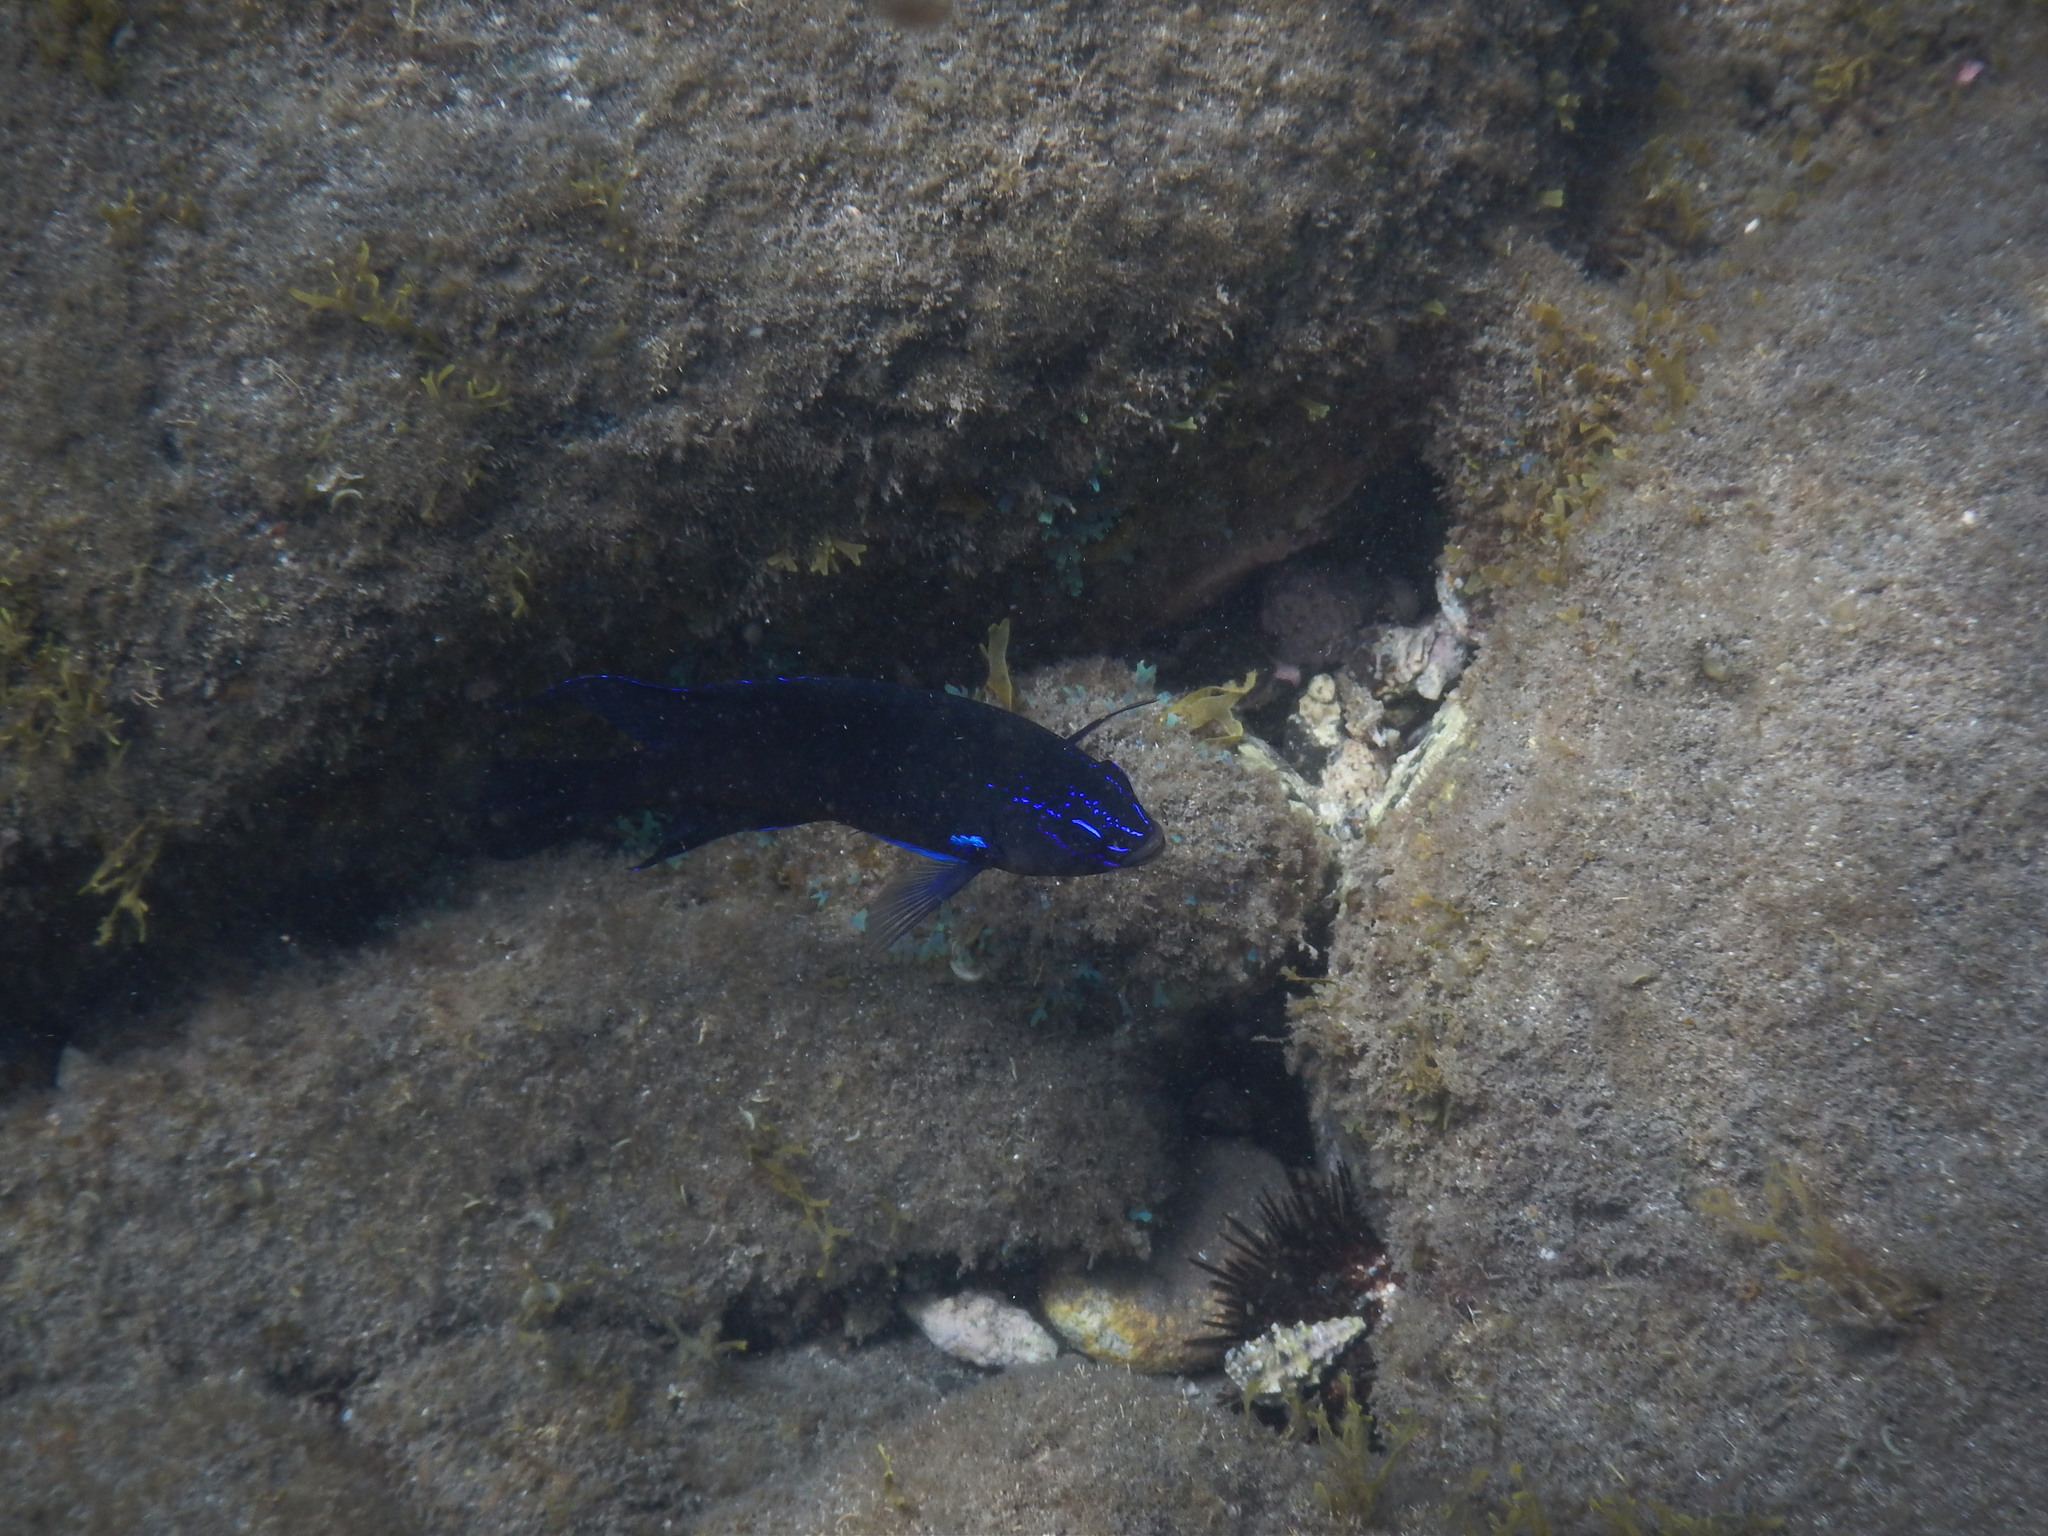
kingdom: Animalia
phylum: Chordata
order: Perciformes
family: Pomacentridae
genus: Similiparma
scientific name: Similiparma lurida
